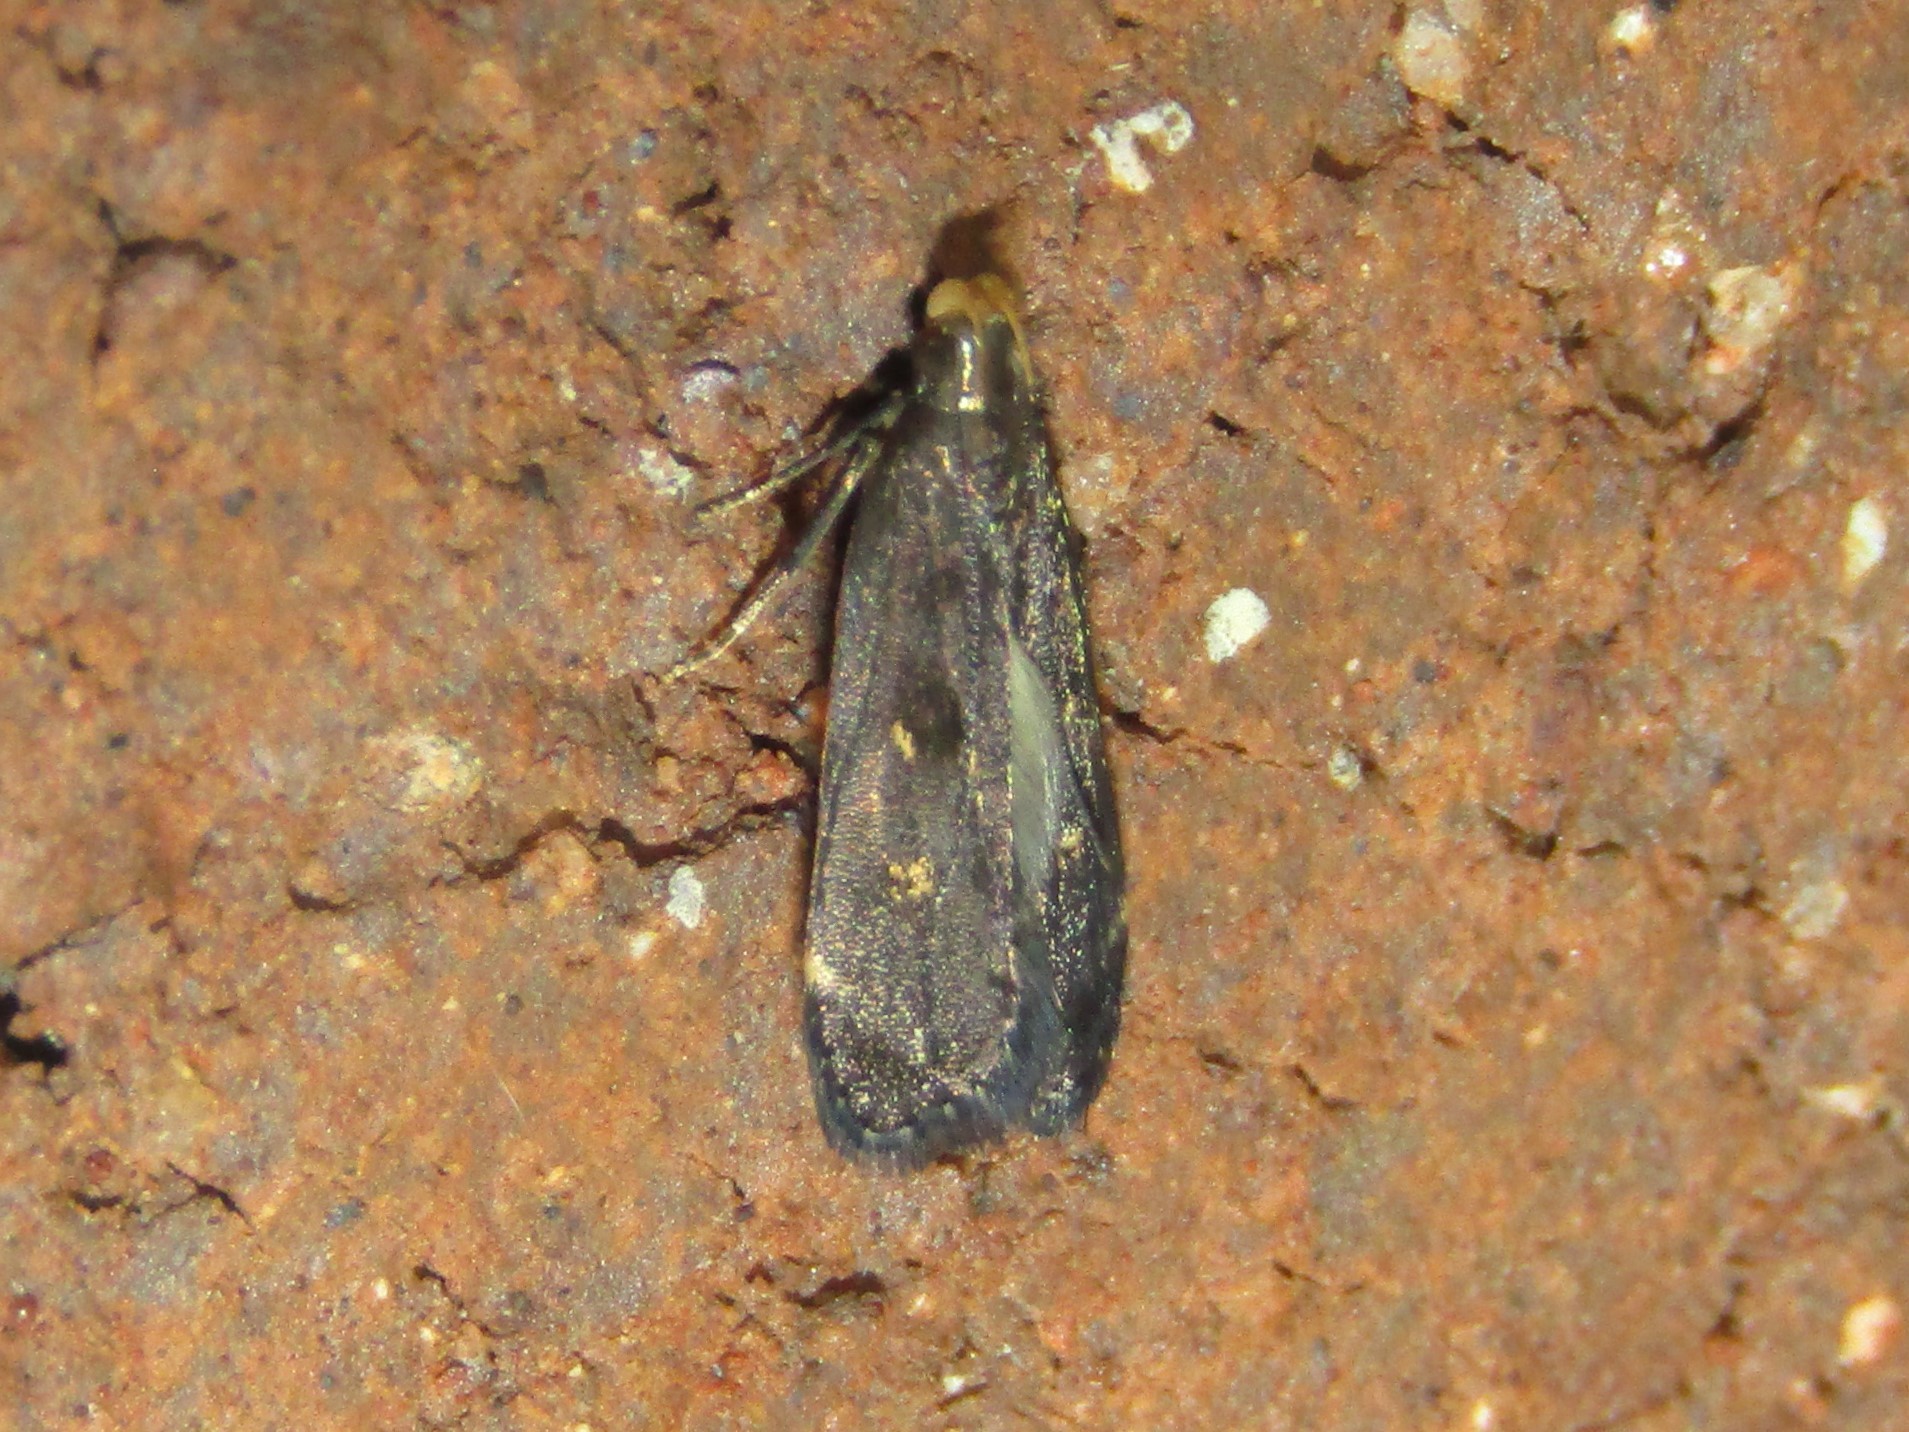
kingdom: Animalia
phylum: Arthropoda
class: Insecta
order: Lepidoptera
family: Gelechiidae
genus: Dichomeris
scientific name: Dichomeris juncidella
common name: Orange-dotted dichomeris moth
